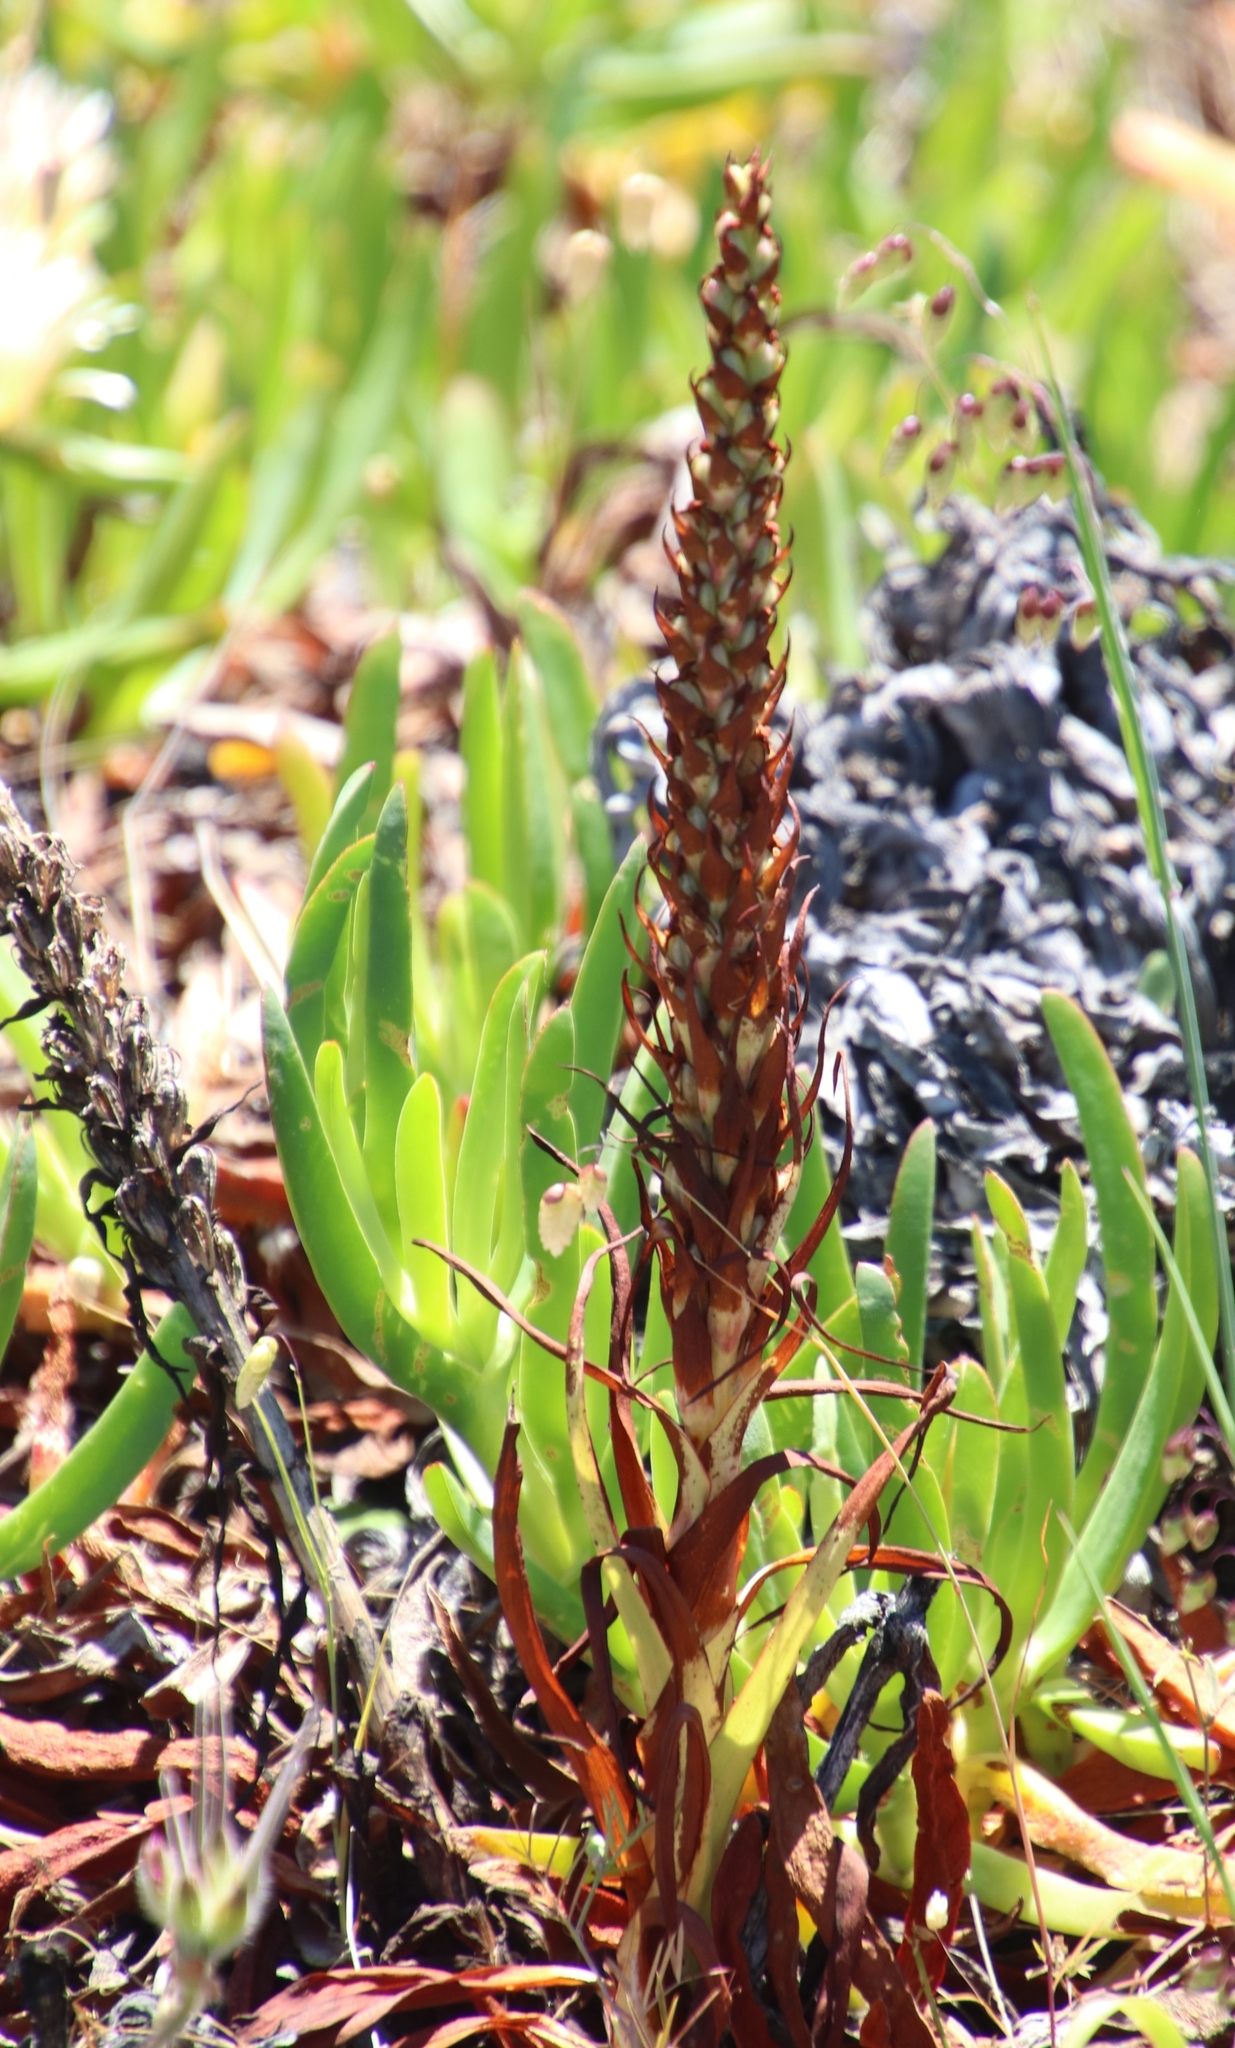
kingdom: Plantae
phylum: Tracheophyta
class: Liliopsida
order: Asparagales
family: Orchidaceae
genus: Disa
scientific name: Disa bracteata
